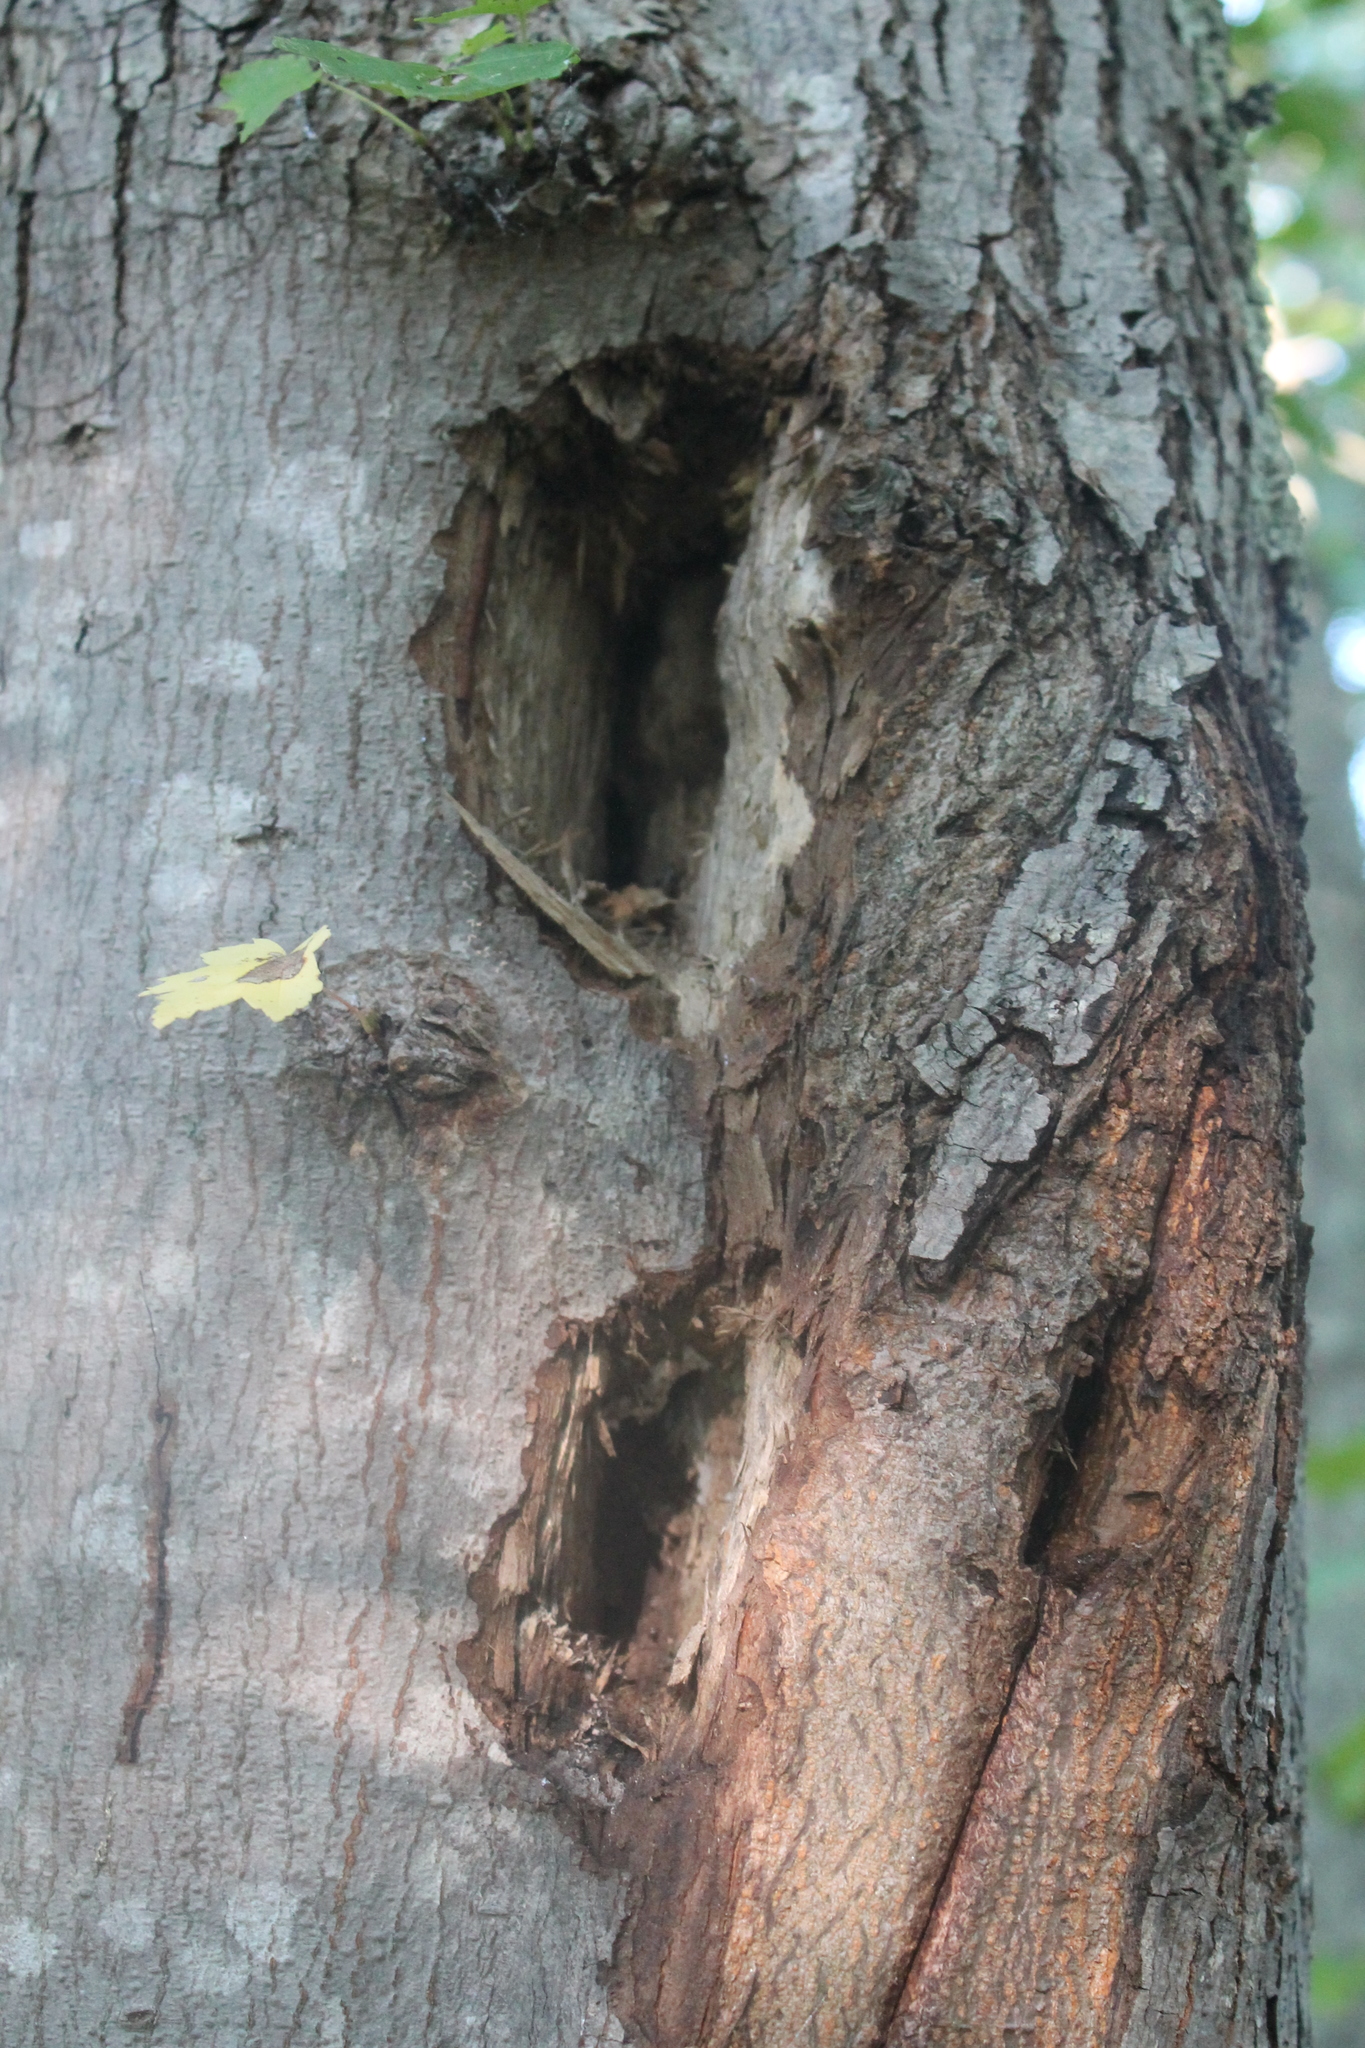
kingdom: Animalia
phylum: Chordata
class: Aves
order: Piciformes
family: Picidae
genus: Dryocopus
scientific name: Dryocopus pileatus
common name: Pileated woodpecker
